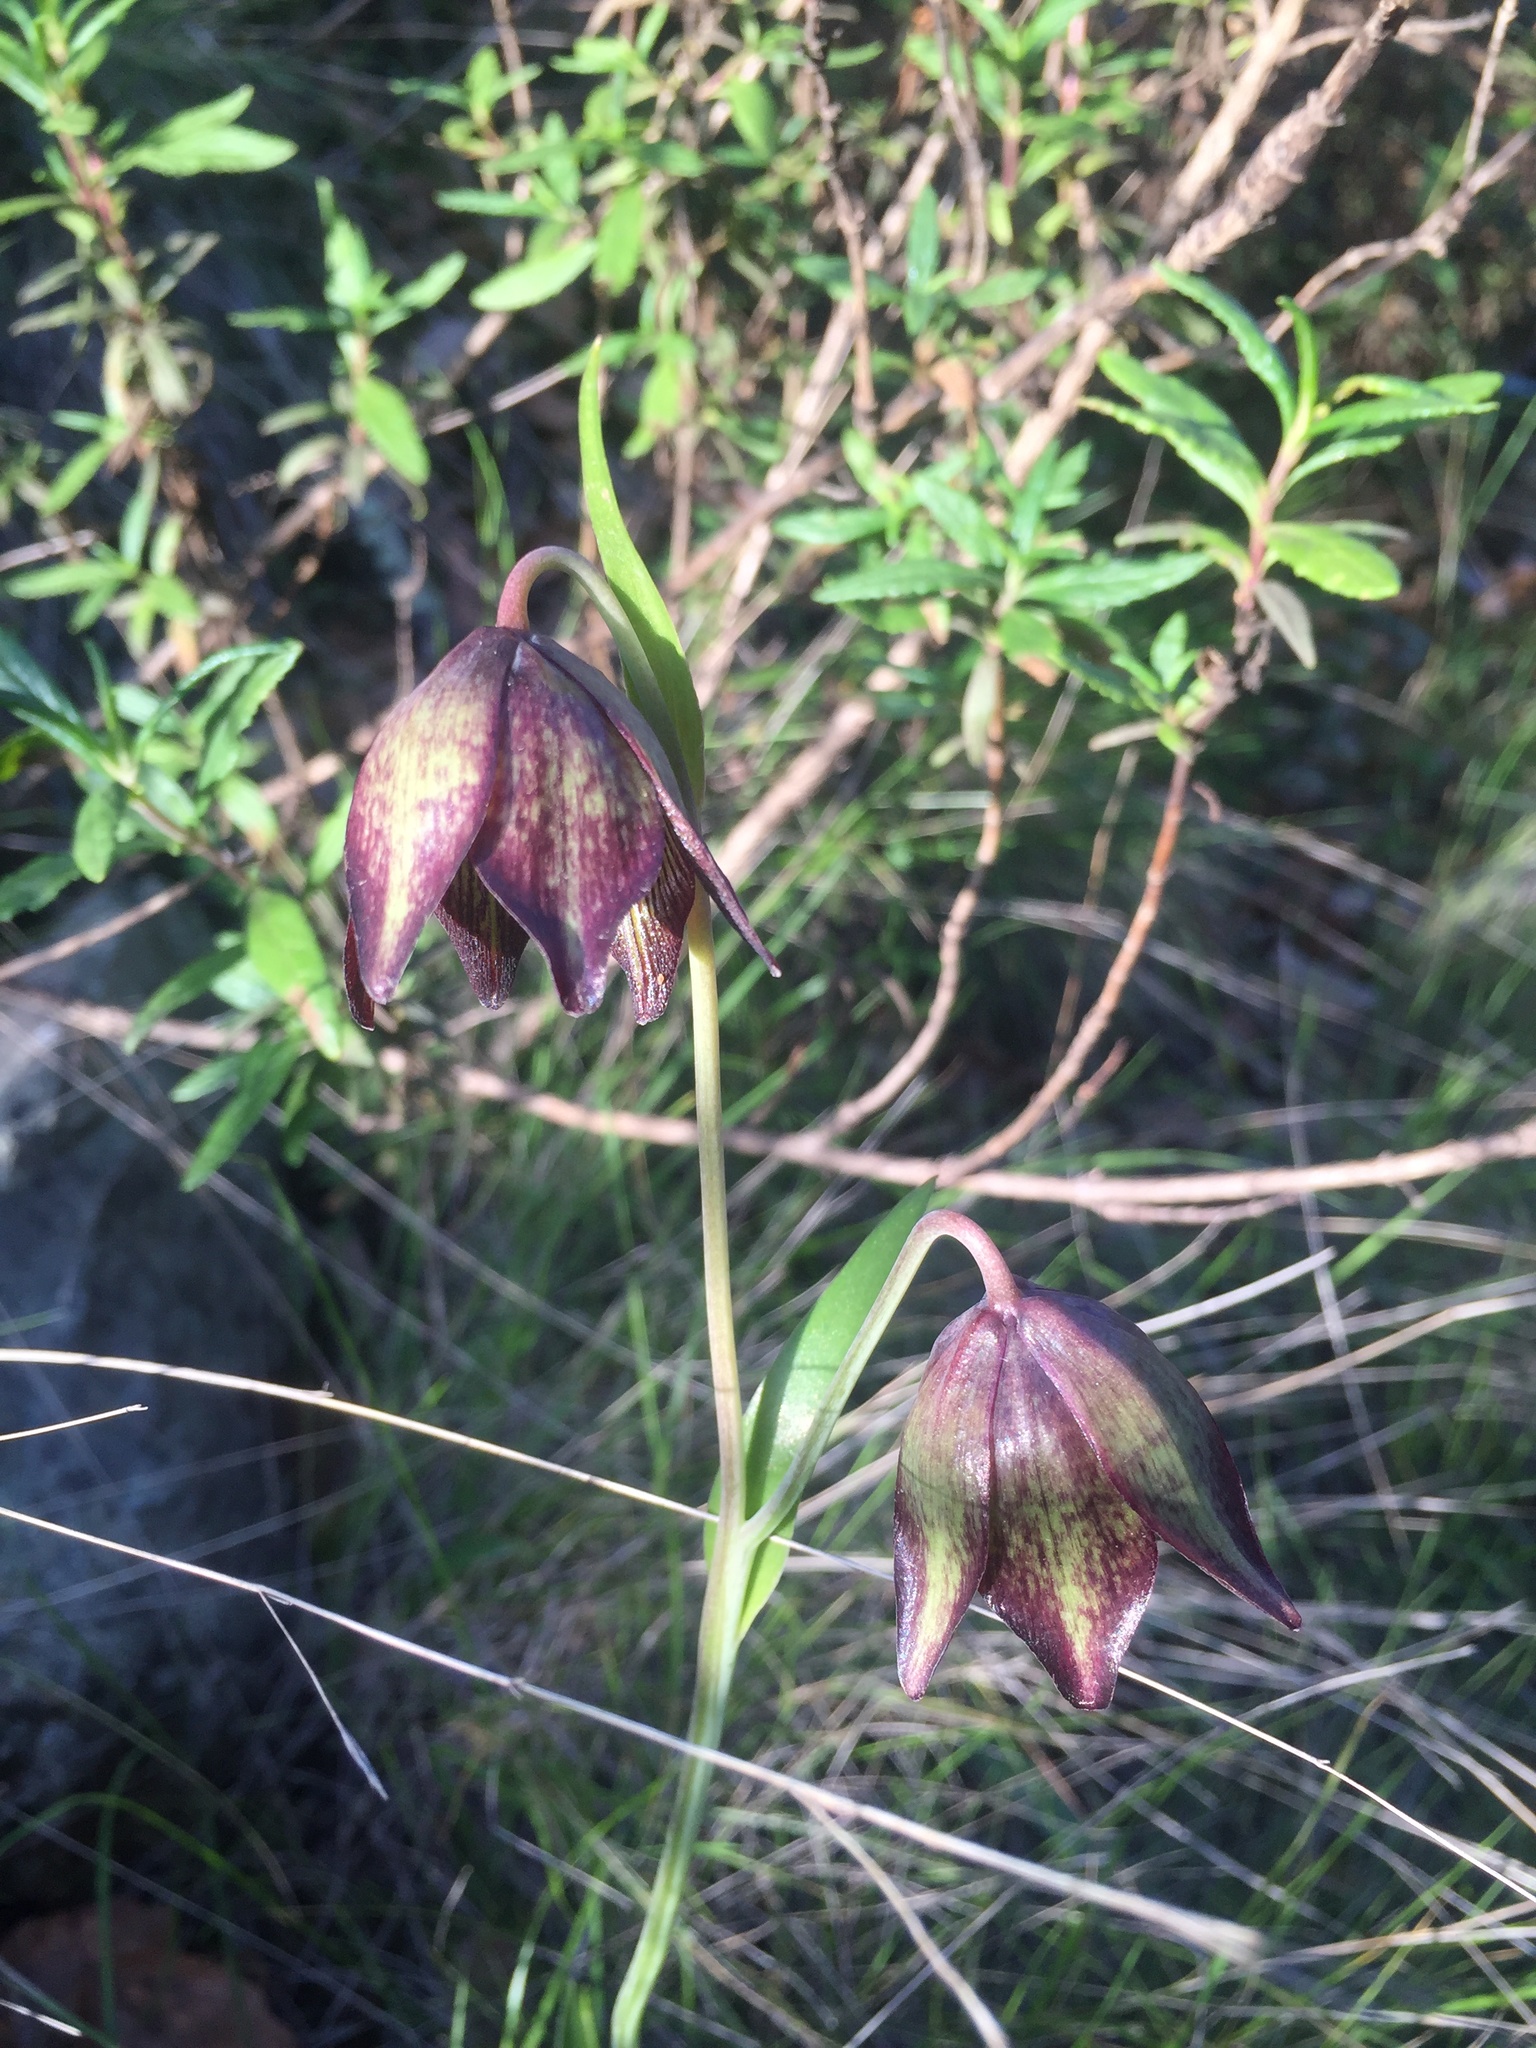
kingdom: Plantae
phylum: Tracheophyta
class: Liliopsida
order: Liliales
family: Liliaceae
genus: Fritillaria
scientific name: Fritillaria biflora
